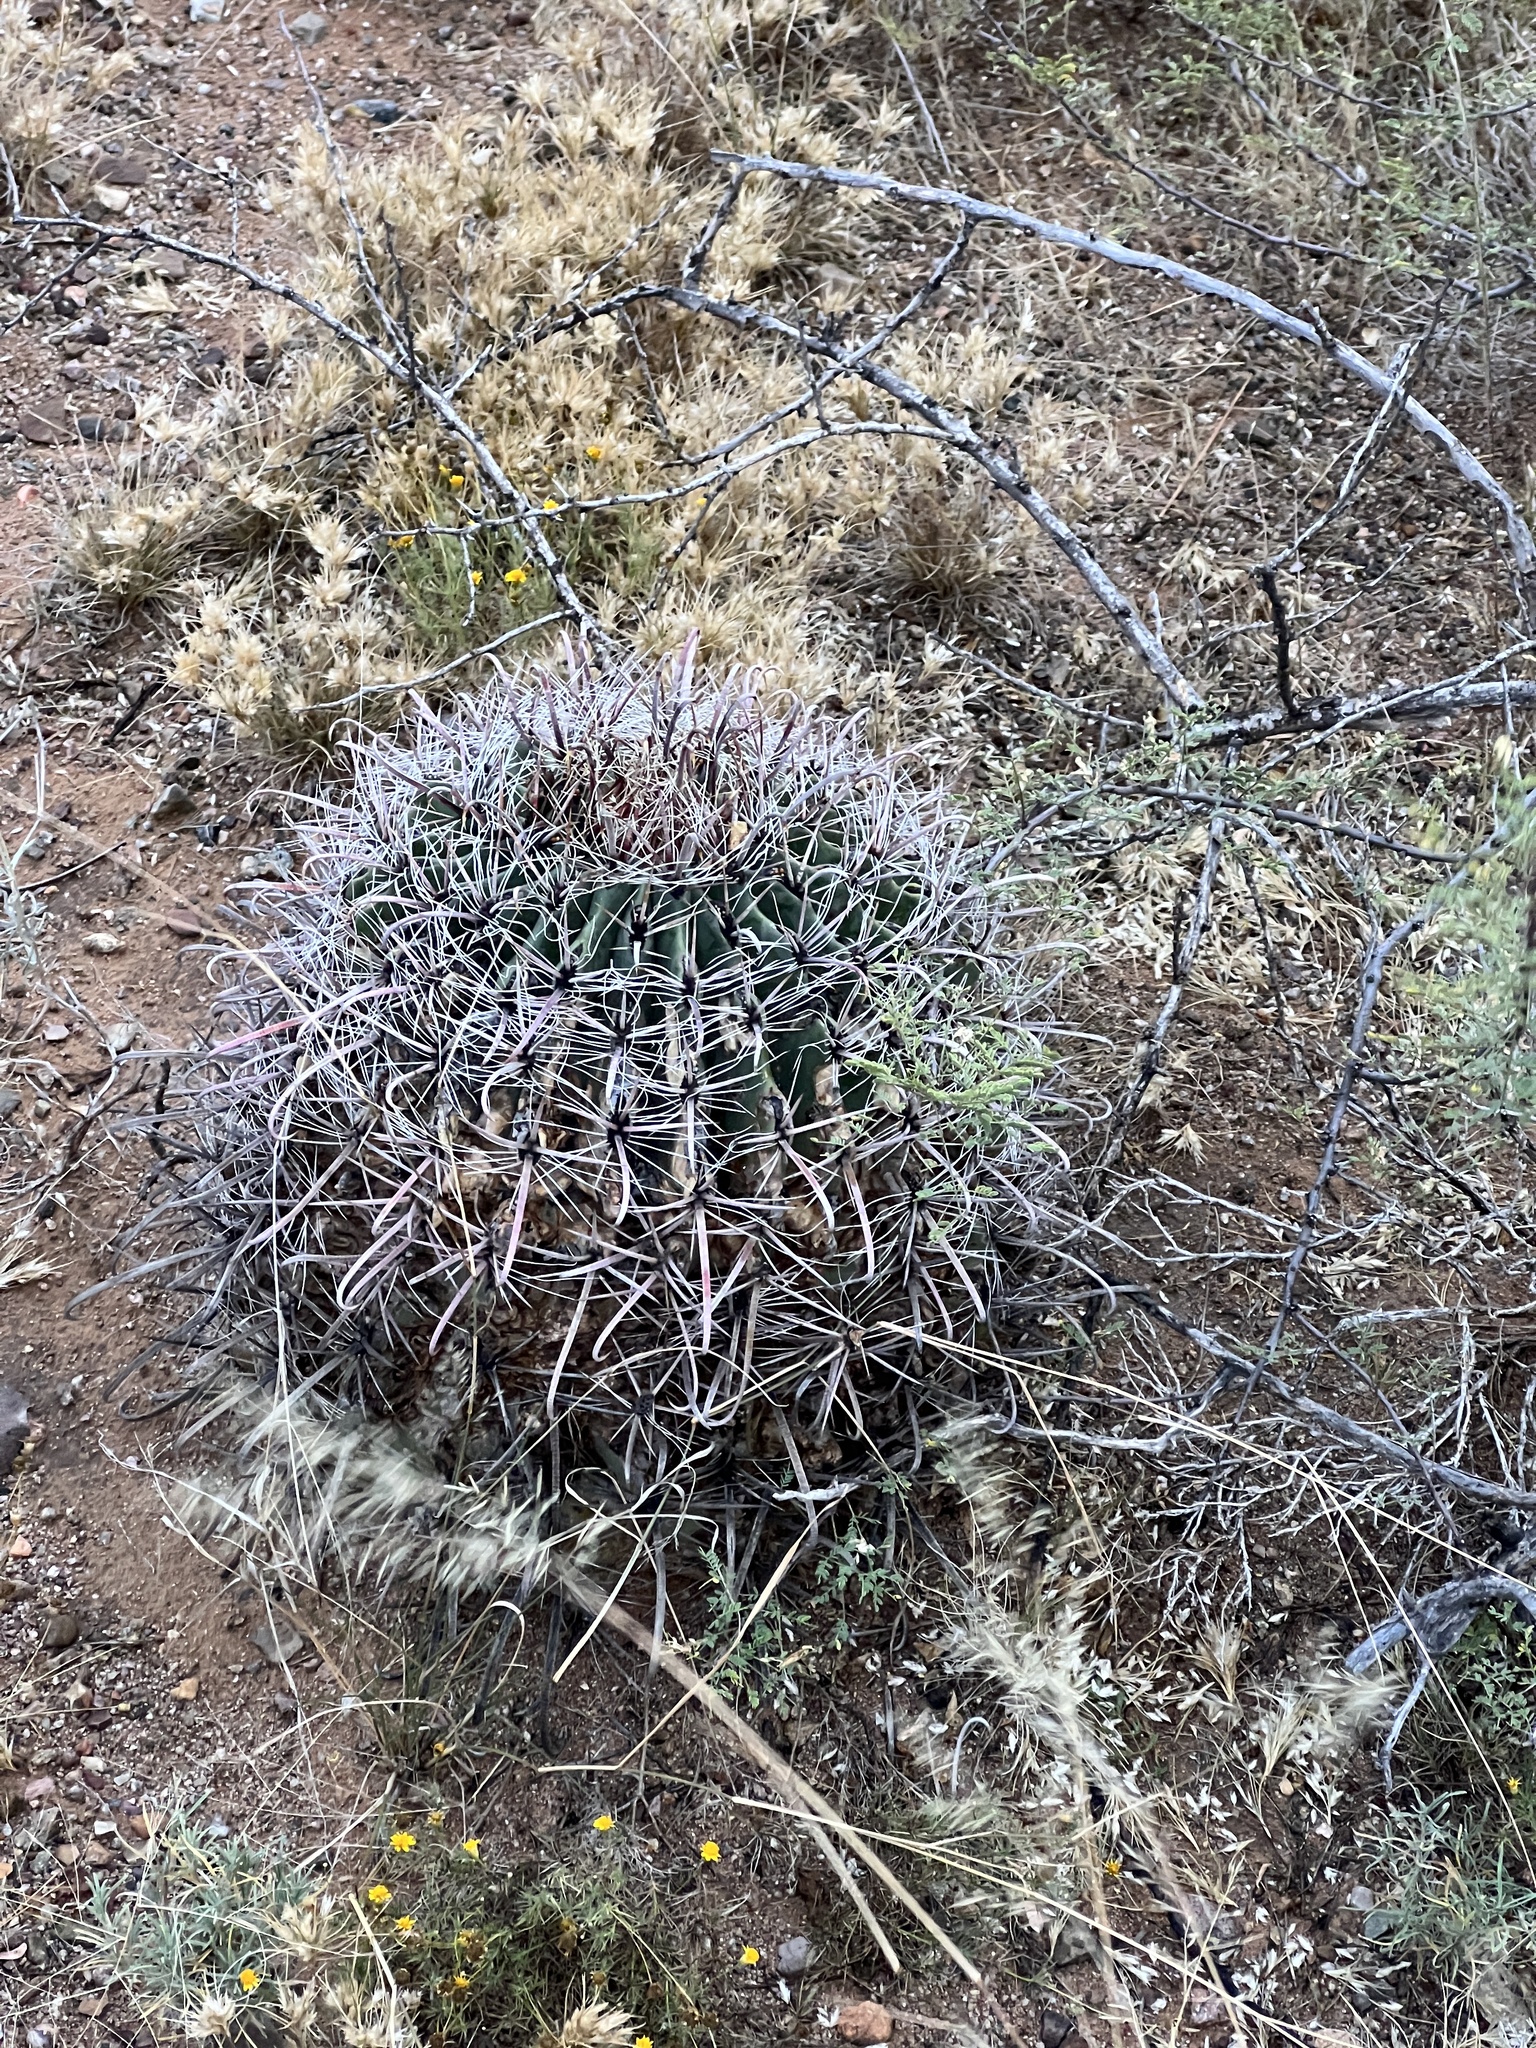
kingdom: Plantae
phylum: Tracheophyta
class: Magnoliopsida
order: Caryophyllales
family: Cactaceae
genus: Ferocactus
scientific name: Ferocactus wislizeni
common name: Candy barrel cactus
